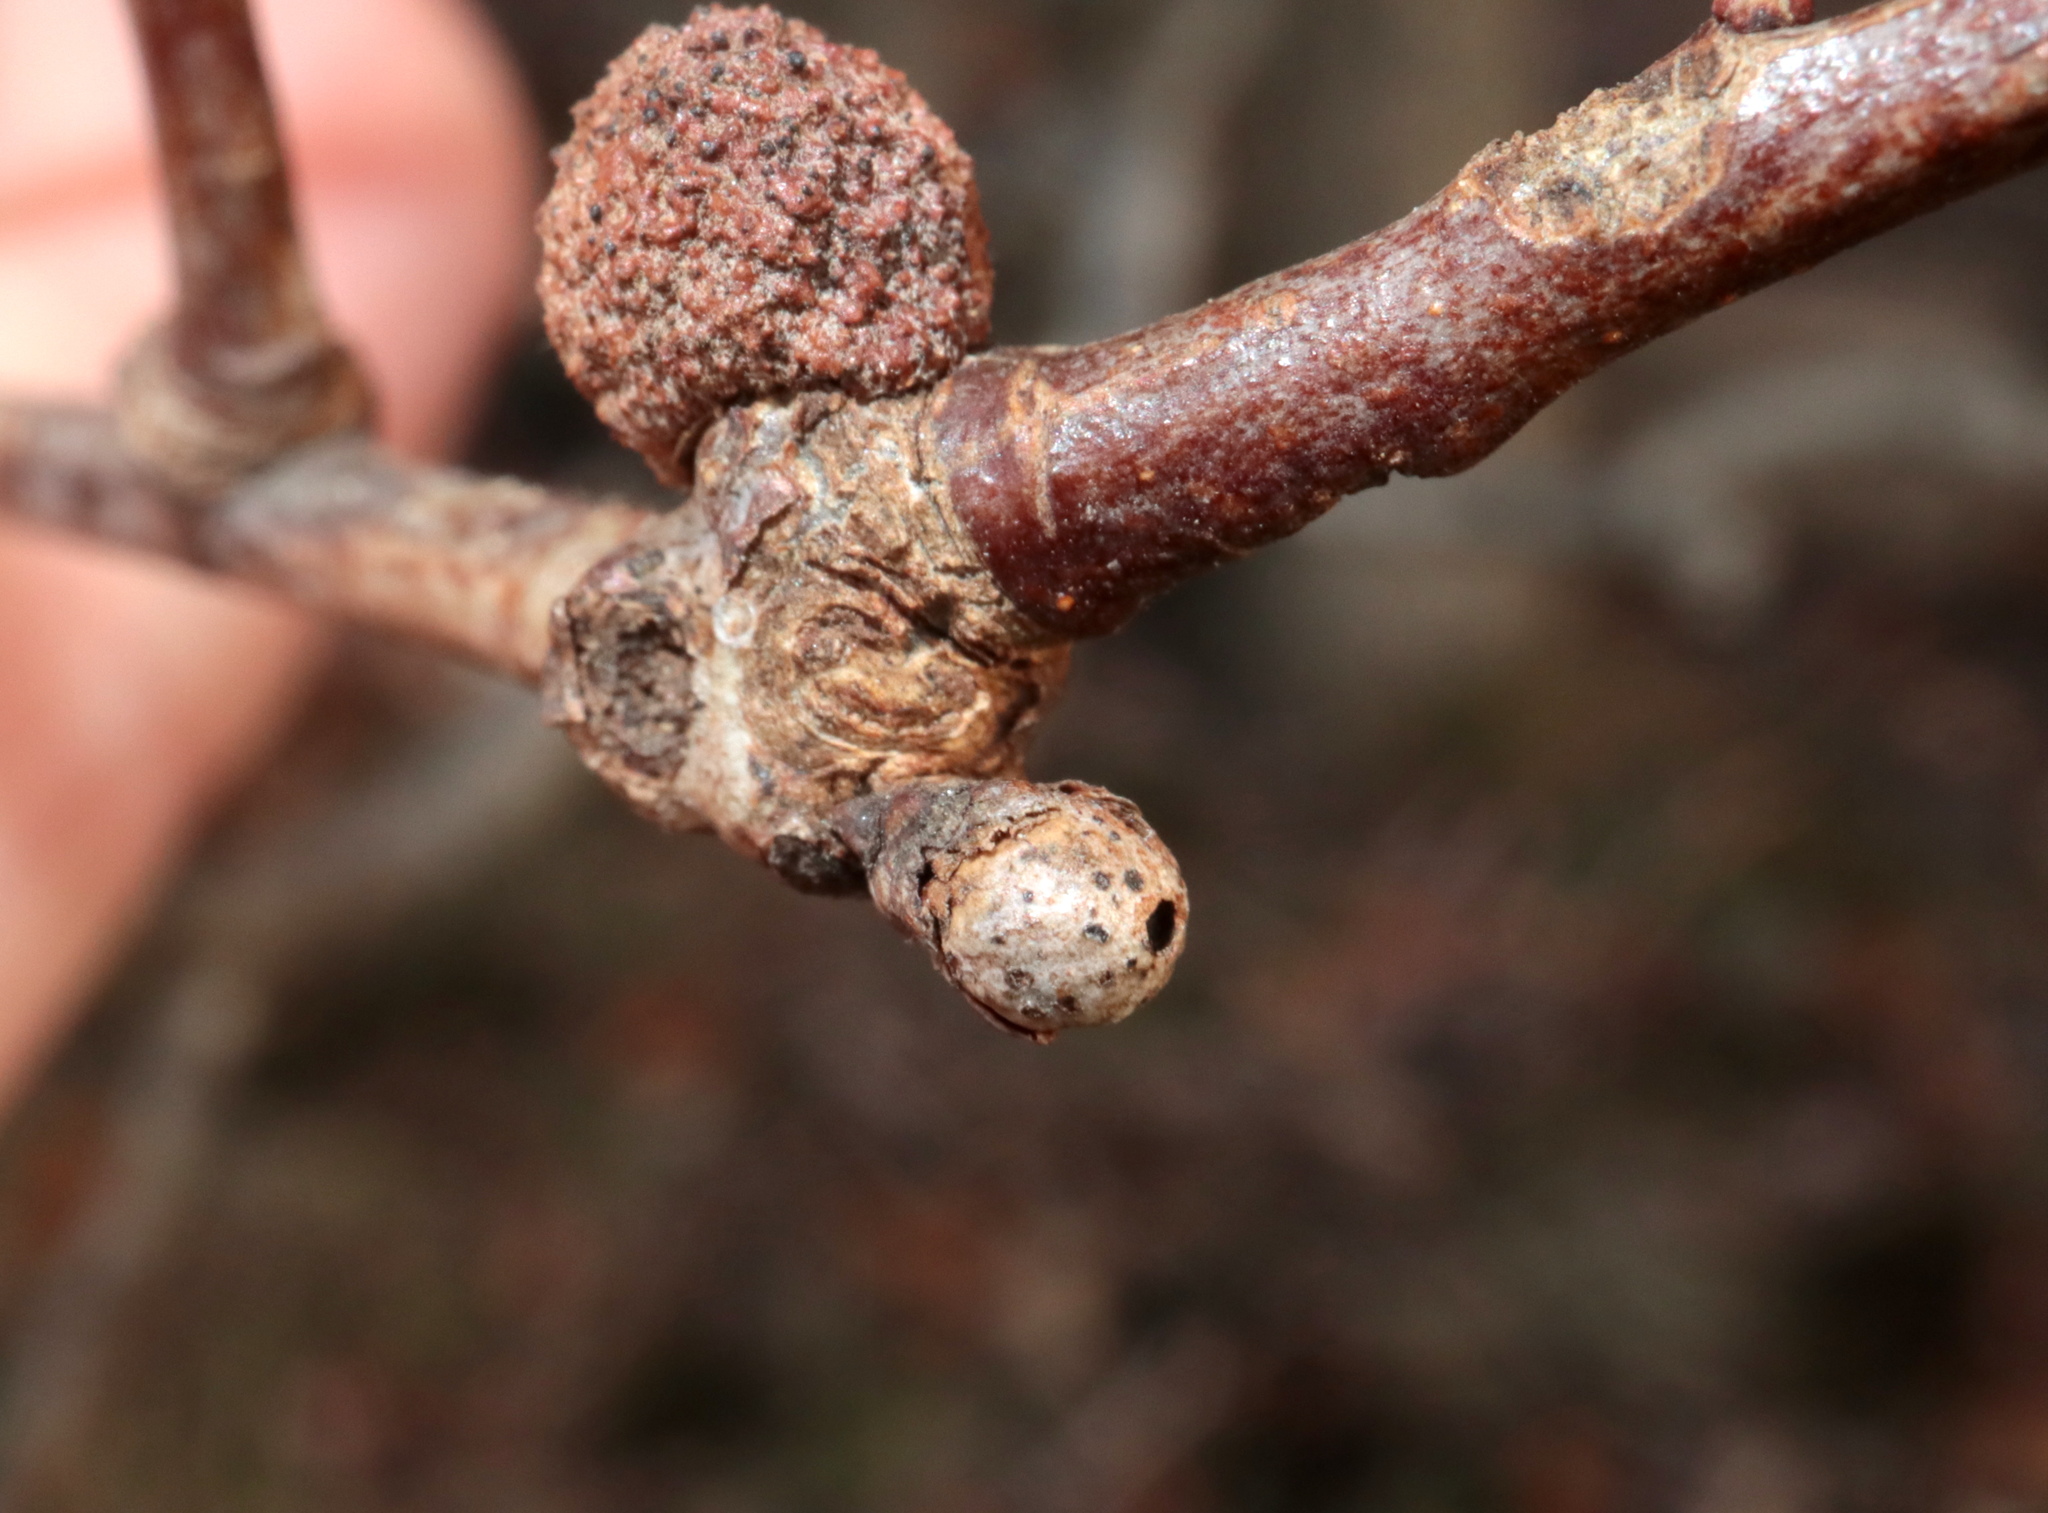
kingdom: Animalia
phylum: Arthropoda
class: Insecta
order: Hymenoptera
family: Cynipidae
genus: Andricus
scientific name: Andricus
